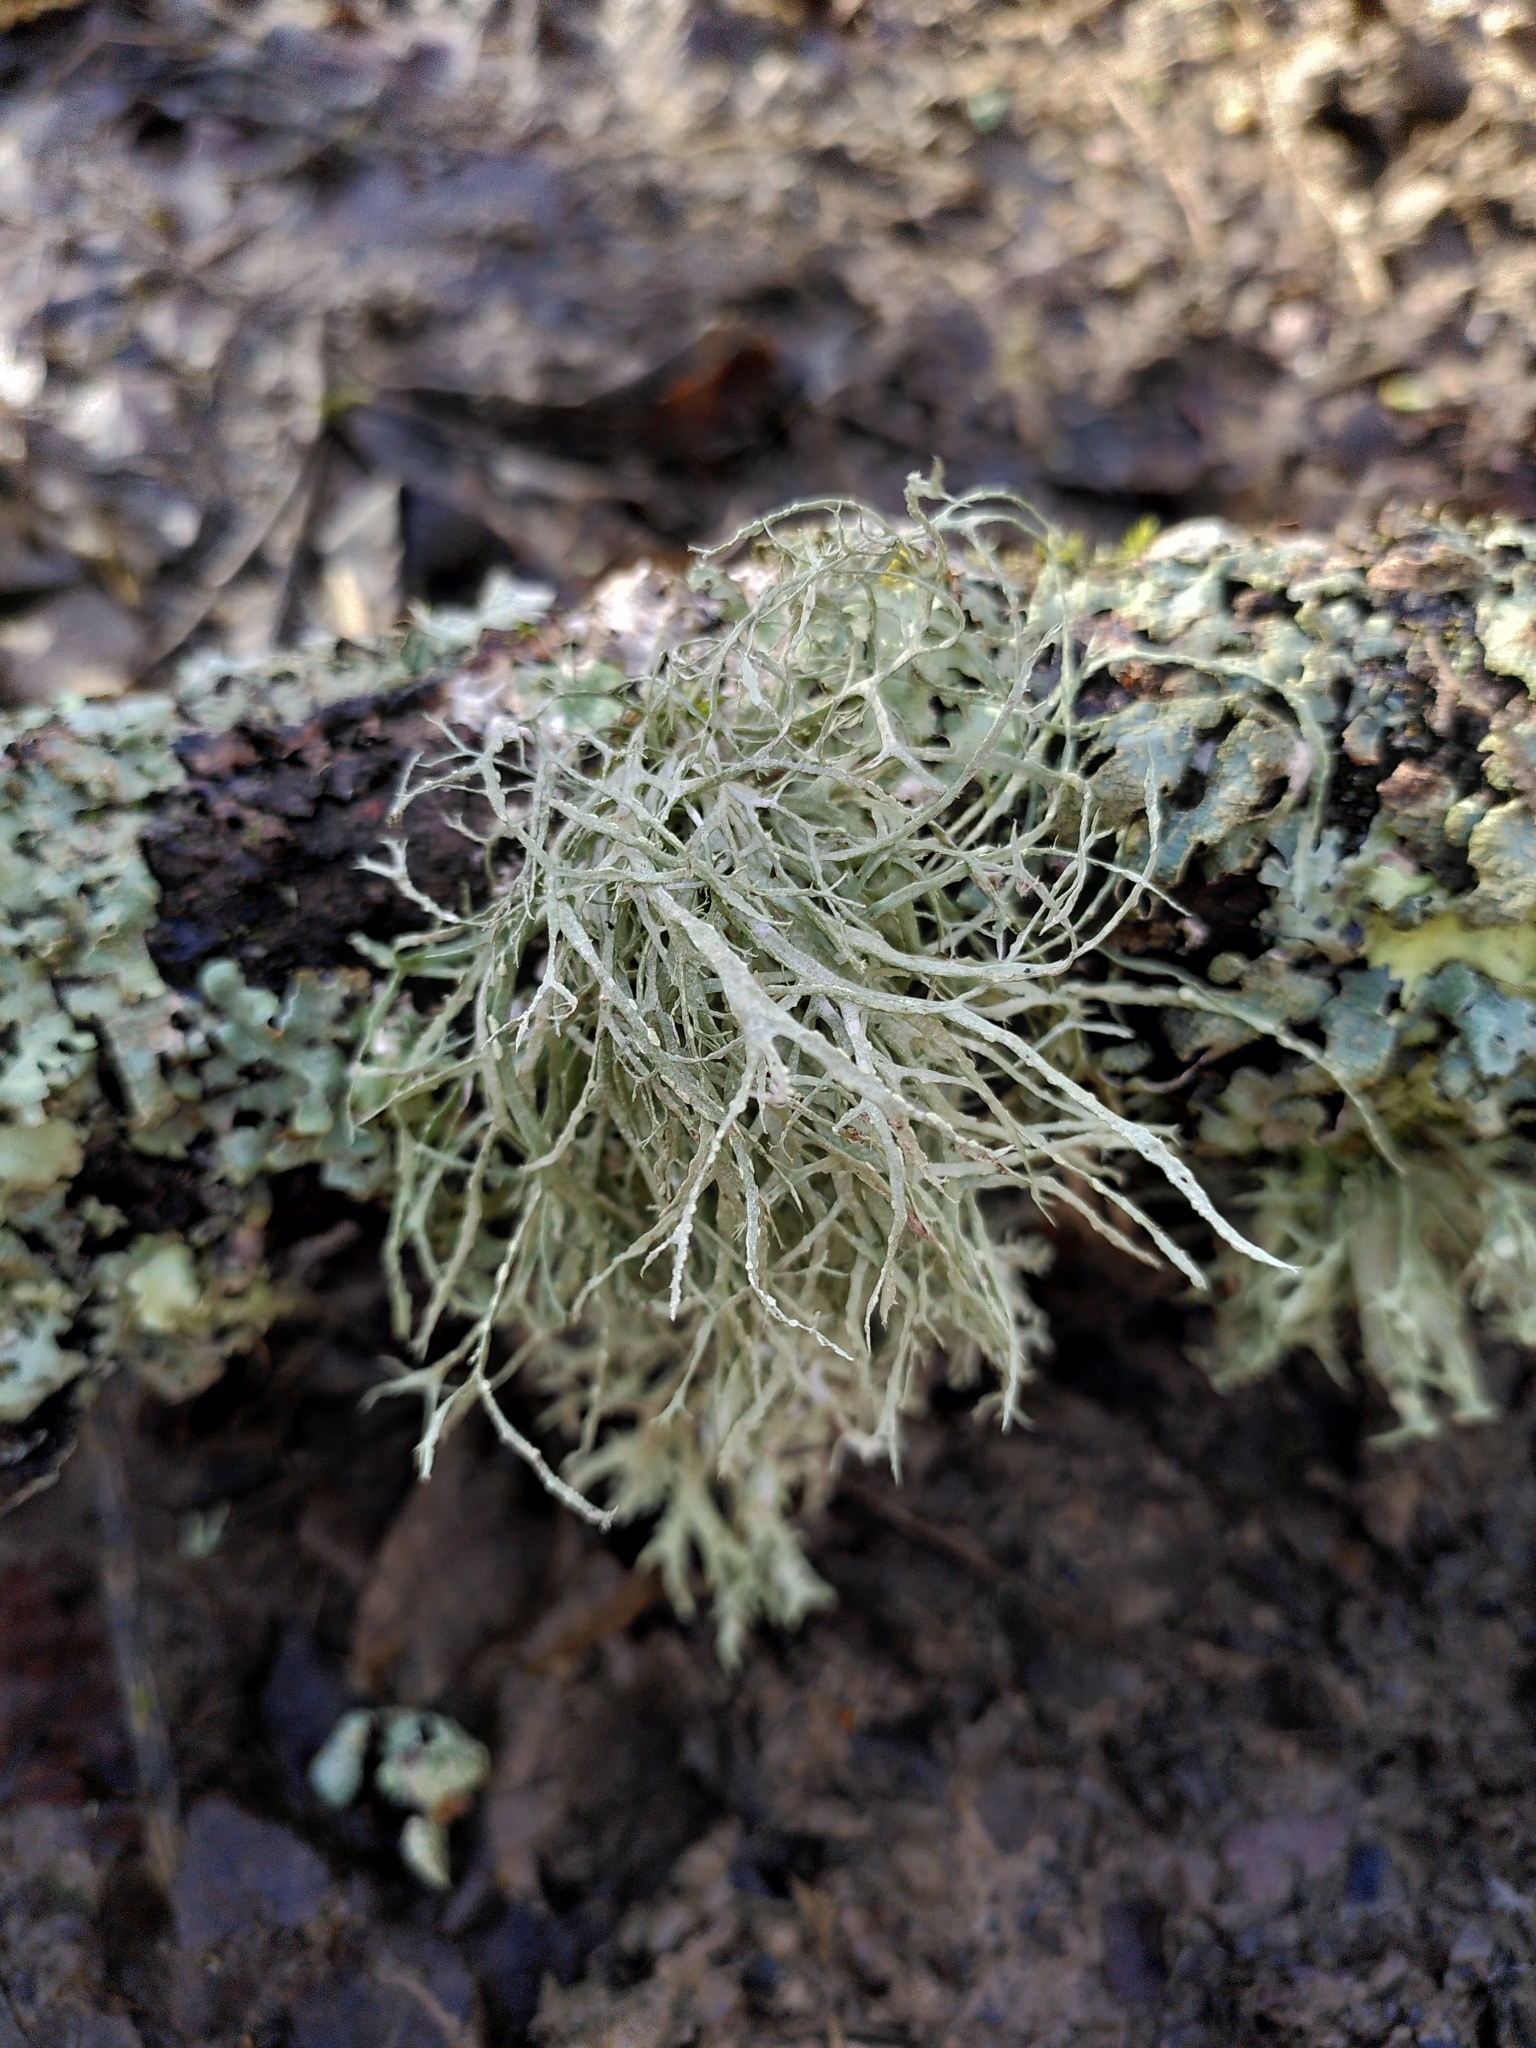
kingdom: Fungi
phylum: Ascomycota
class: Lecanoromycetes
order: Lecanorales
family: Ramalinaceae
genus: Ramalina
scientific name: Ramalina farinacea
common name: Farinose cartilage lichen
